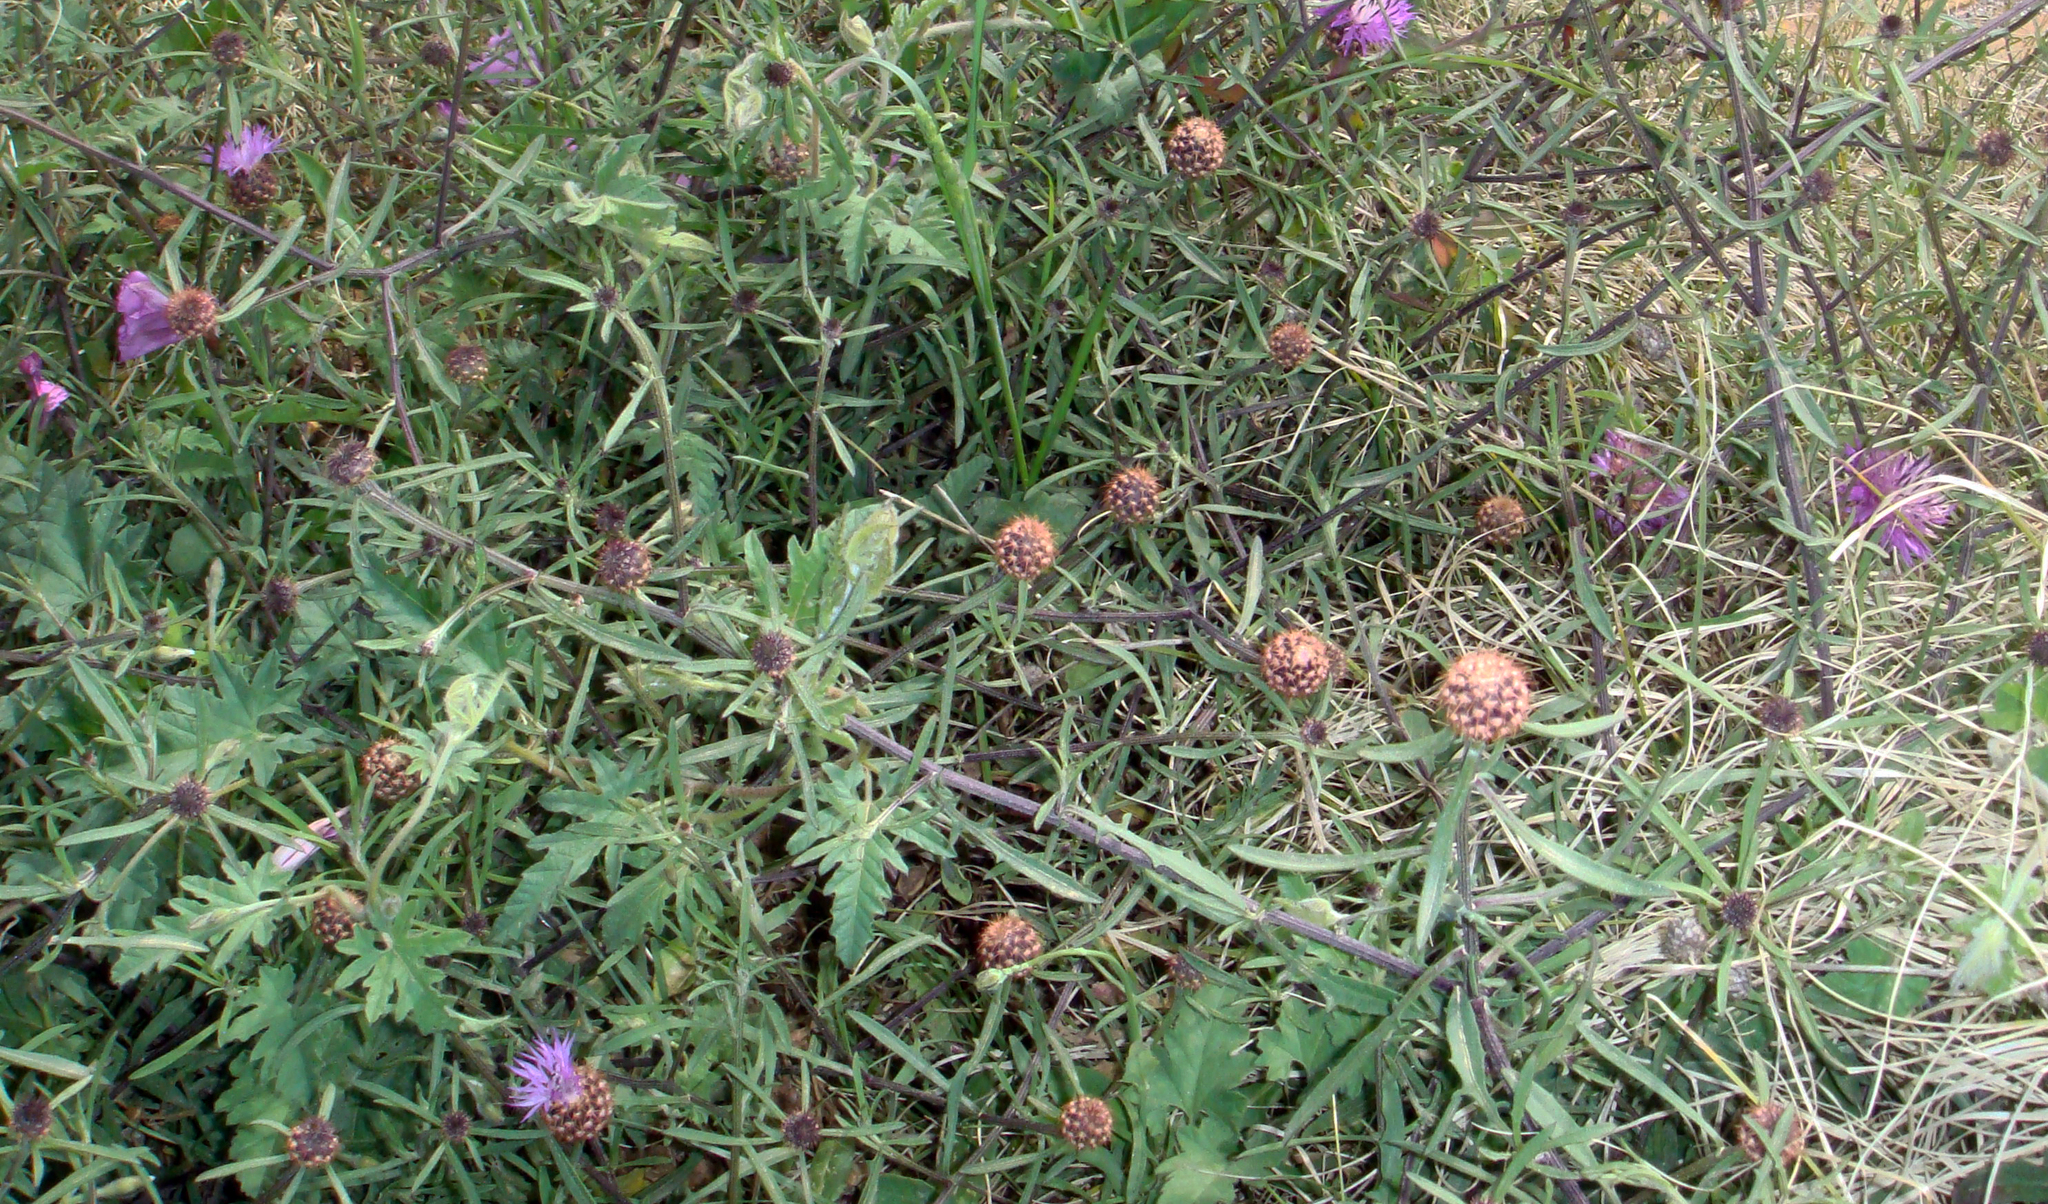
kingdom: Plantae
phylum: Tracheophyta
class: Magnoliopsida
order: Asterales
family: Asteraceae
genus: Centaurea
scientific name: Centaurea aspera
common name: Rough star-thistle
